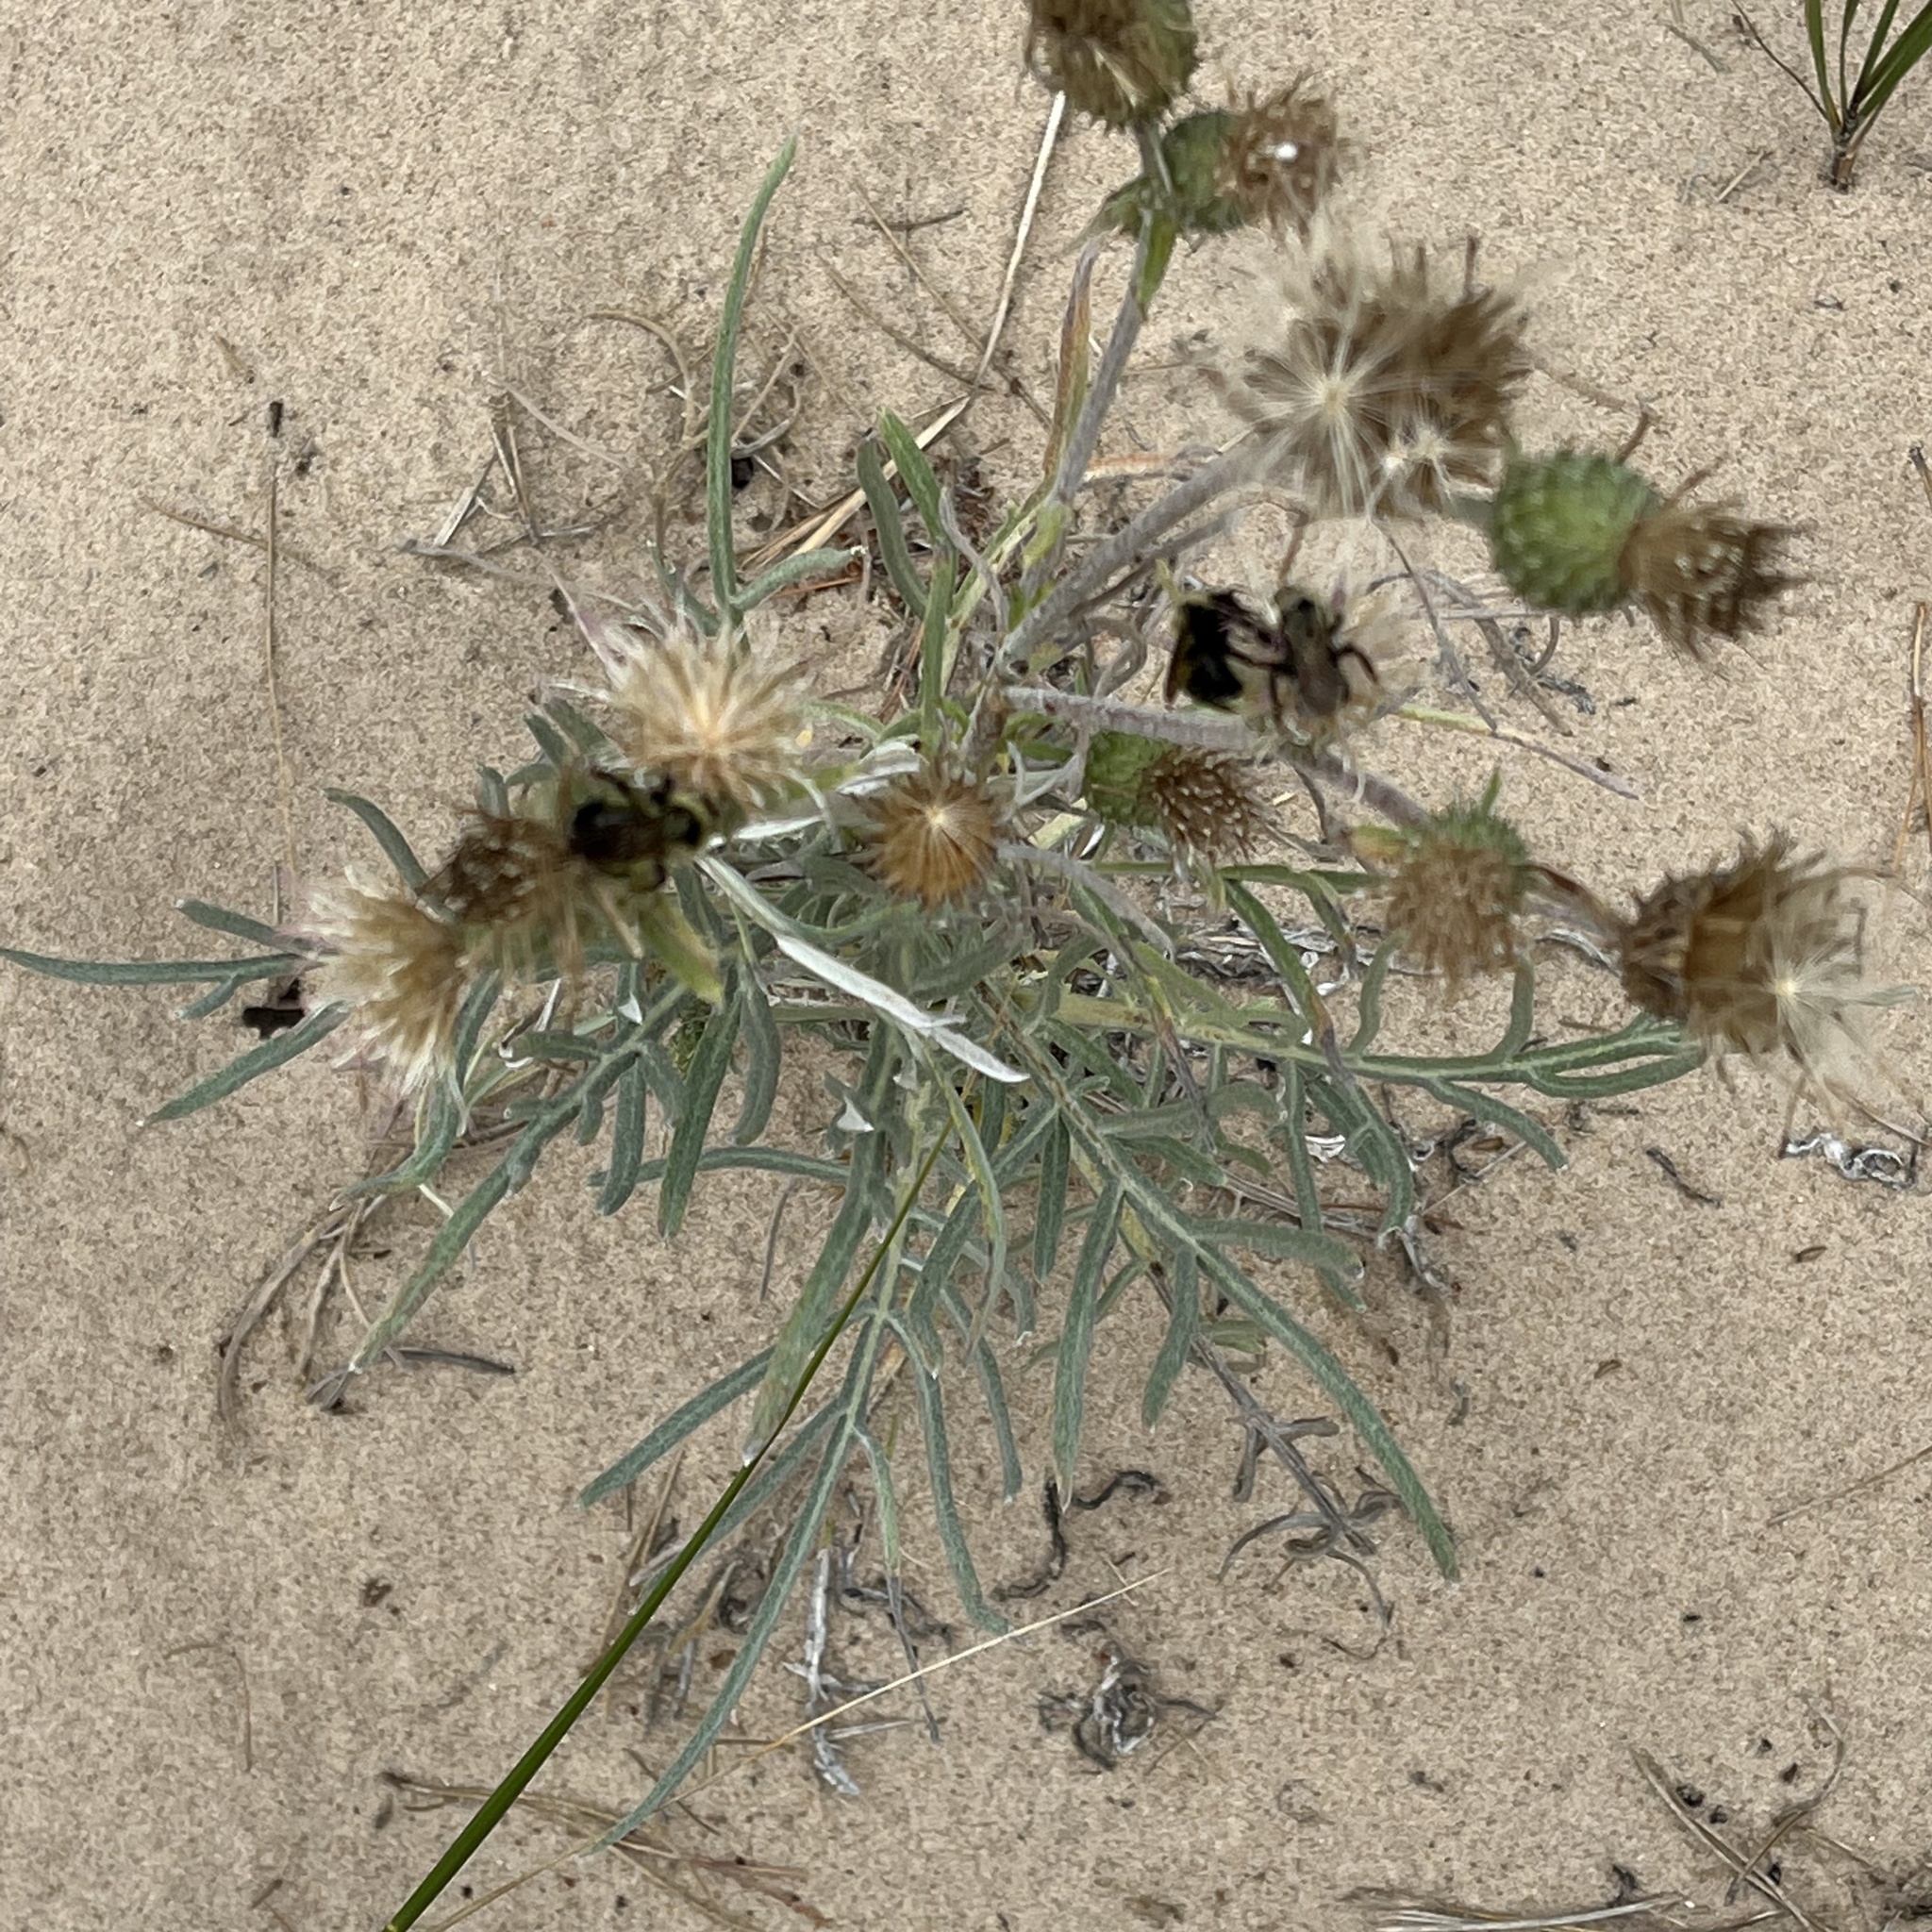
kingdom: Plantae
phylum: Tracheophyta
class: Magnoliopsida
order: Asterales
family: Asteraceae
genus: Cirsium
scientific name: Cirsium pitcheri
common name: Dune thistle
